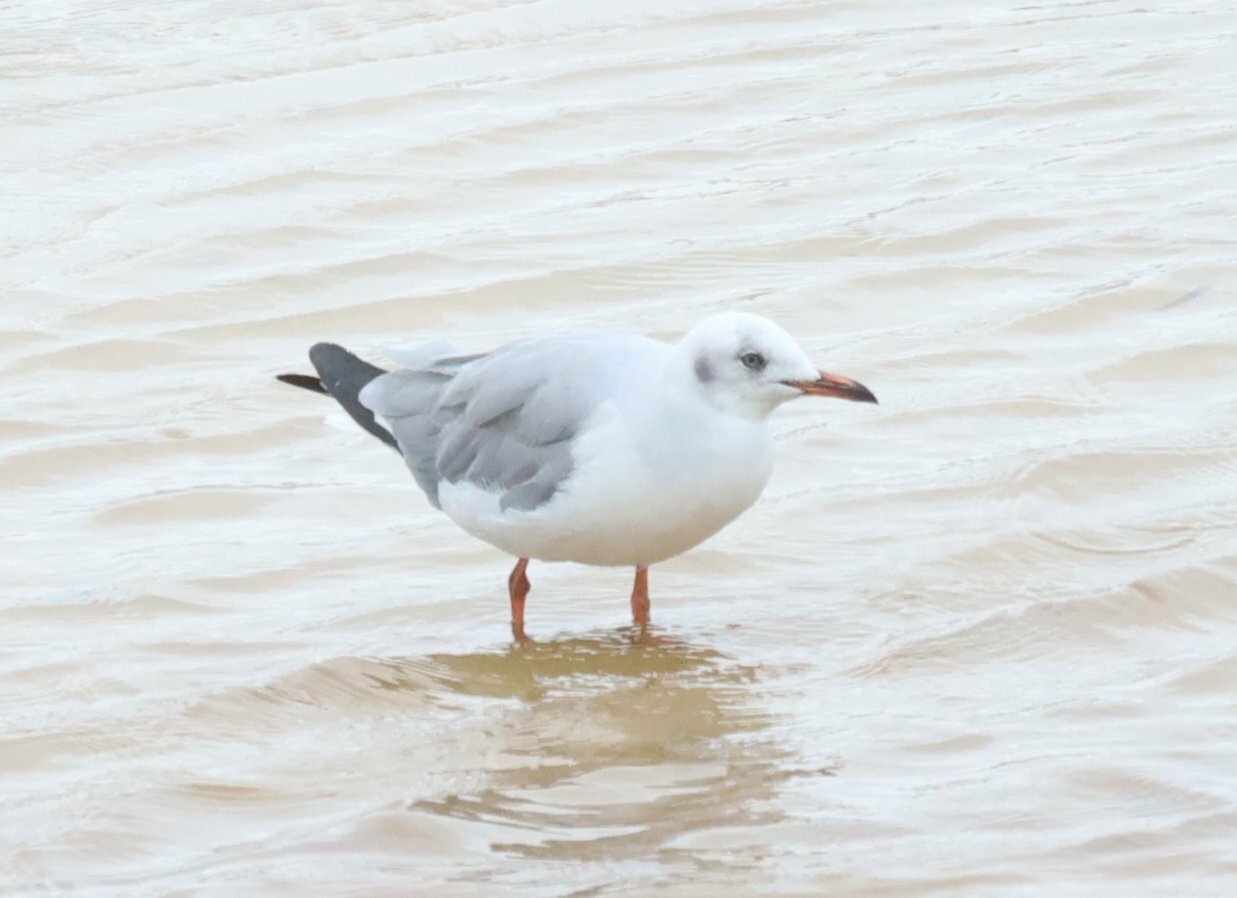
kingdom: Animalia
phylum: Chordata
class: Aves
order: Charadriiformes
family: Laridae
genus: Chroicocephalus
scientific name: Chroicocephalus cirrocephalus
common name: Grey-headed gull
